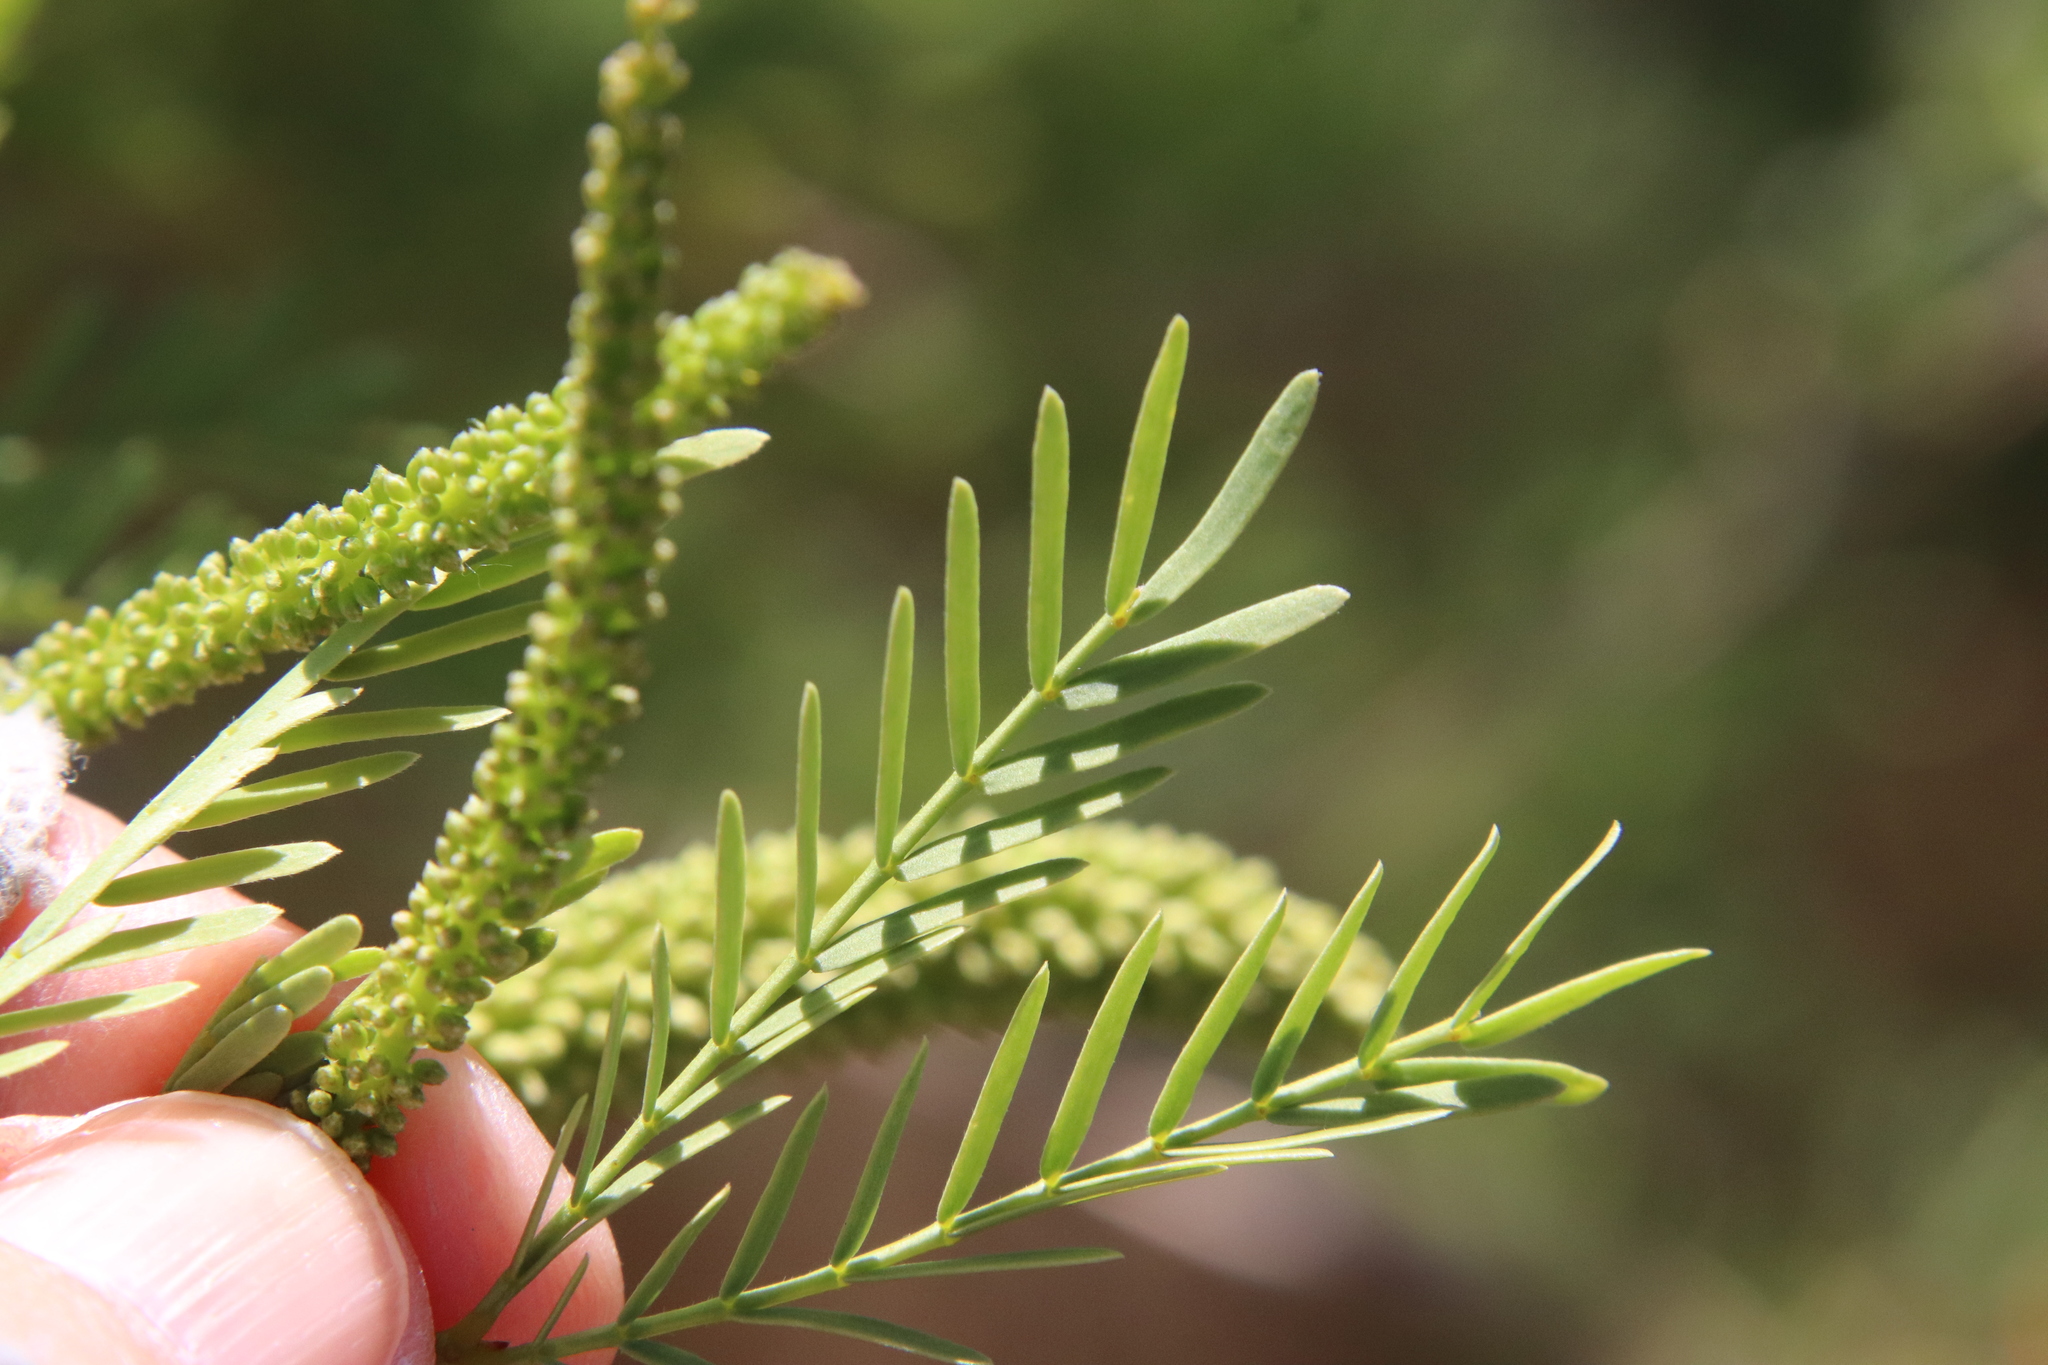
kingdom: Plantae
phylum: Tracheophyta
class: Magnoliopsida
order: Fabales
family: Fabaceae
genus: Prosopis
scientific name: Prosopis pubescens
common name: Screw-bean
